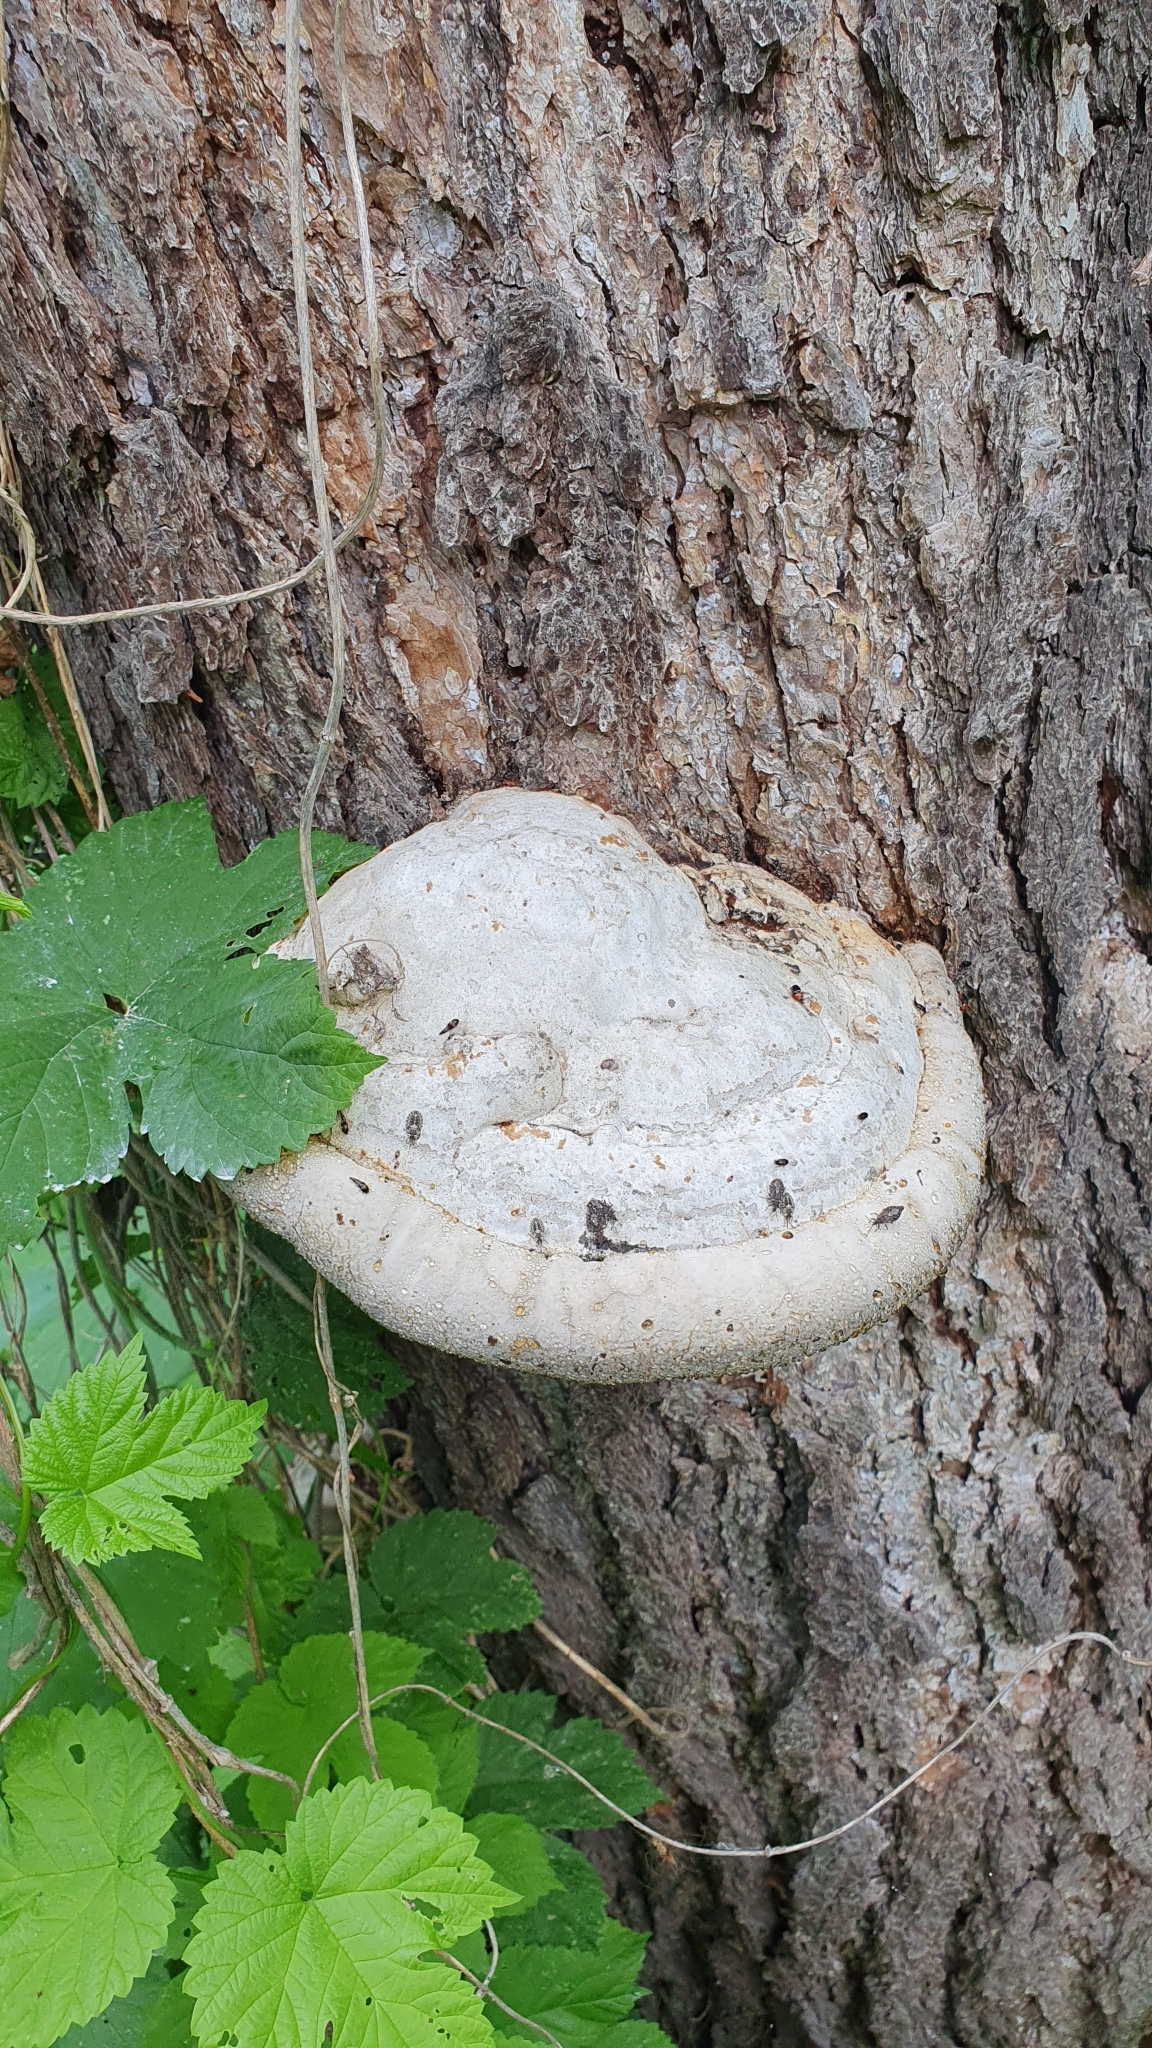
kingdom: Fungi
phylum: Basidiomycota
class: Agaricomycetes
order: Polyporales
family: Polyporaceae
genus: Fomes
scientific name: Fomes fomentarius
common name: Hoof fungus
